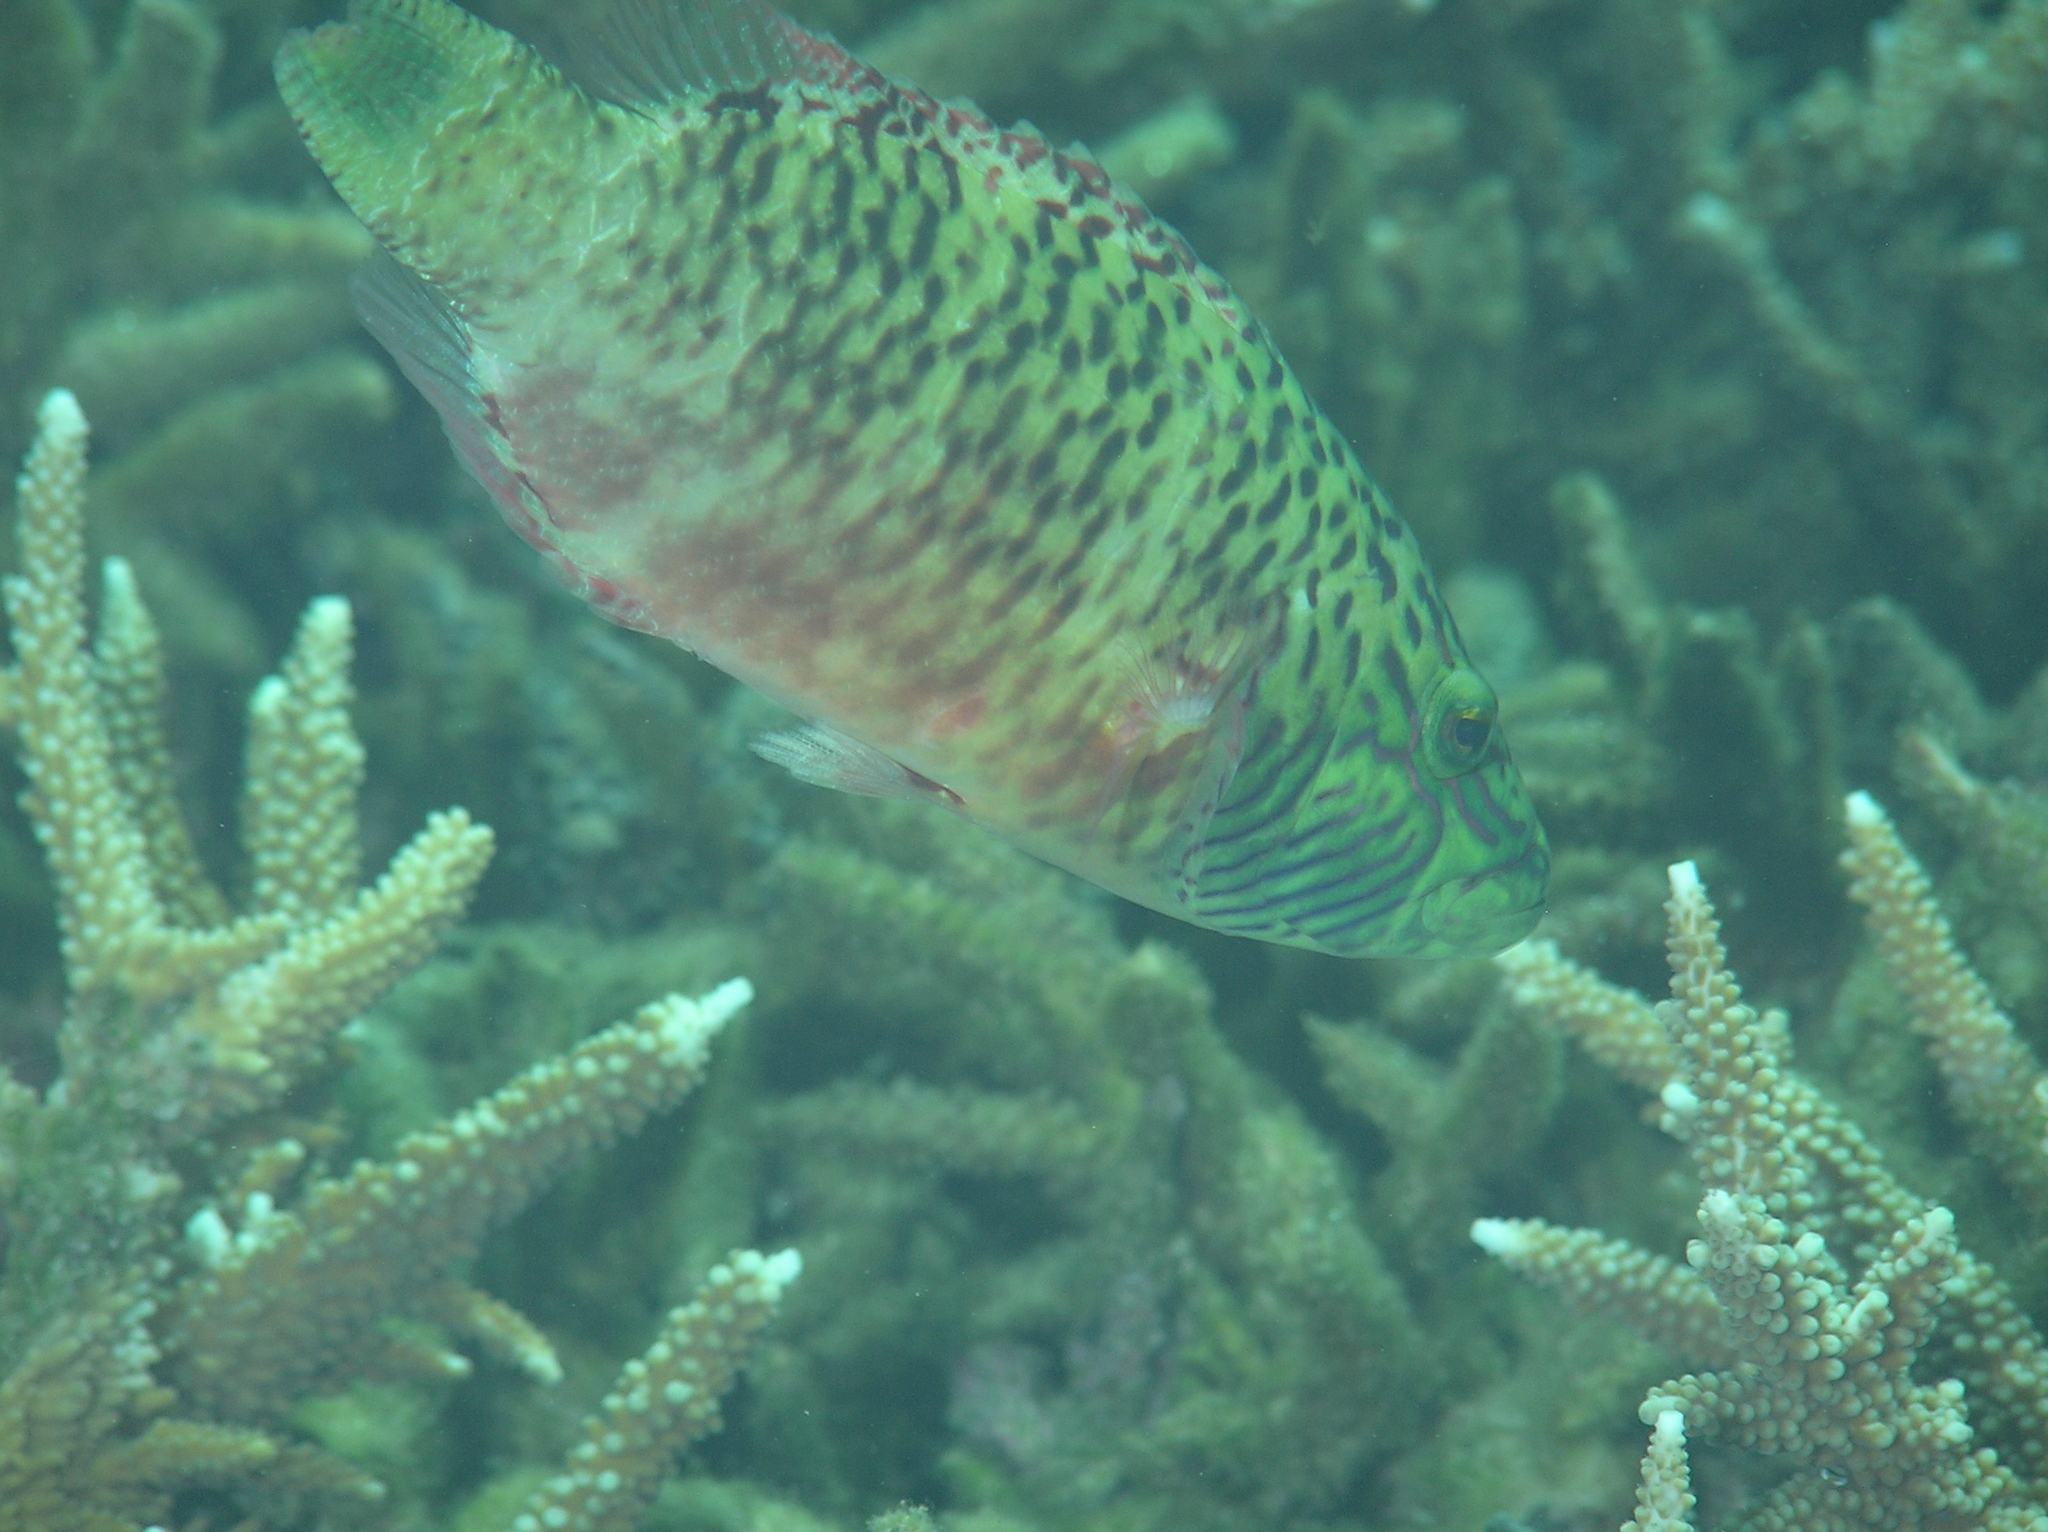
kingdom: Animalia
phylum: Chordata
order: Perciformes
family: Labridae
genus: Oxycheilinus
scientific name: Oxycheilinus digramma
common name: Bandcheek wrasse
